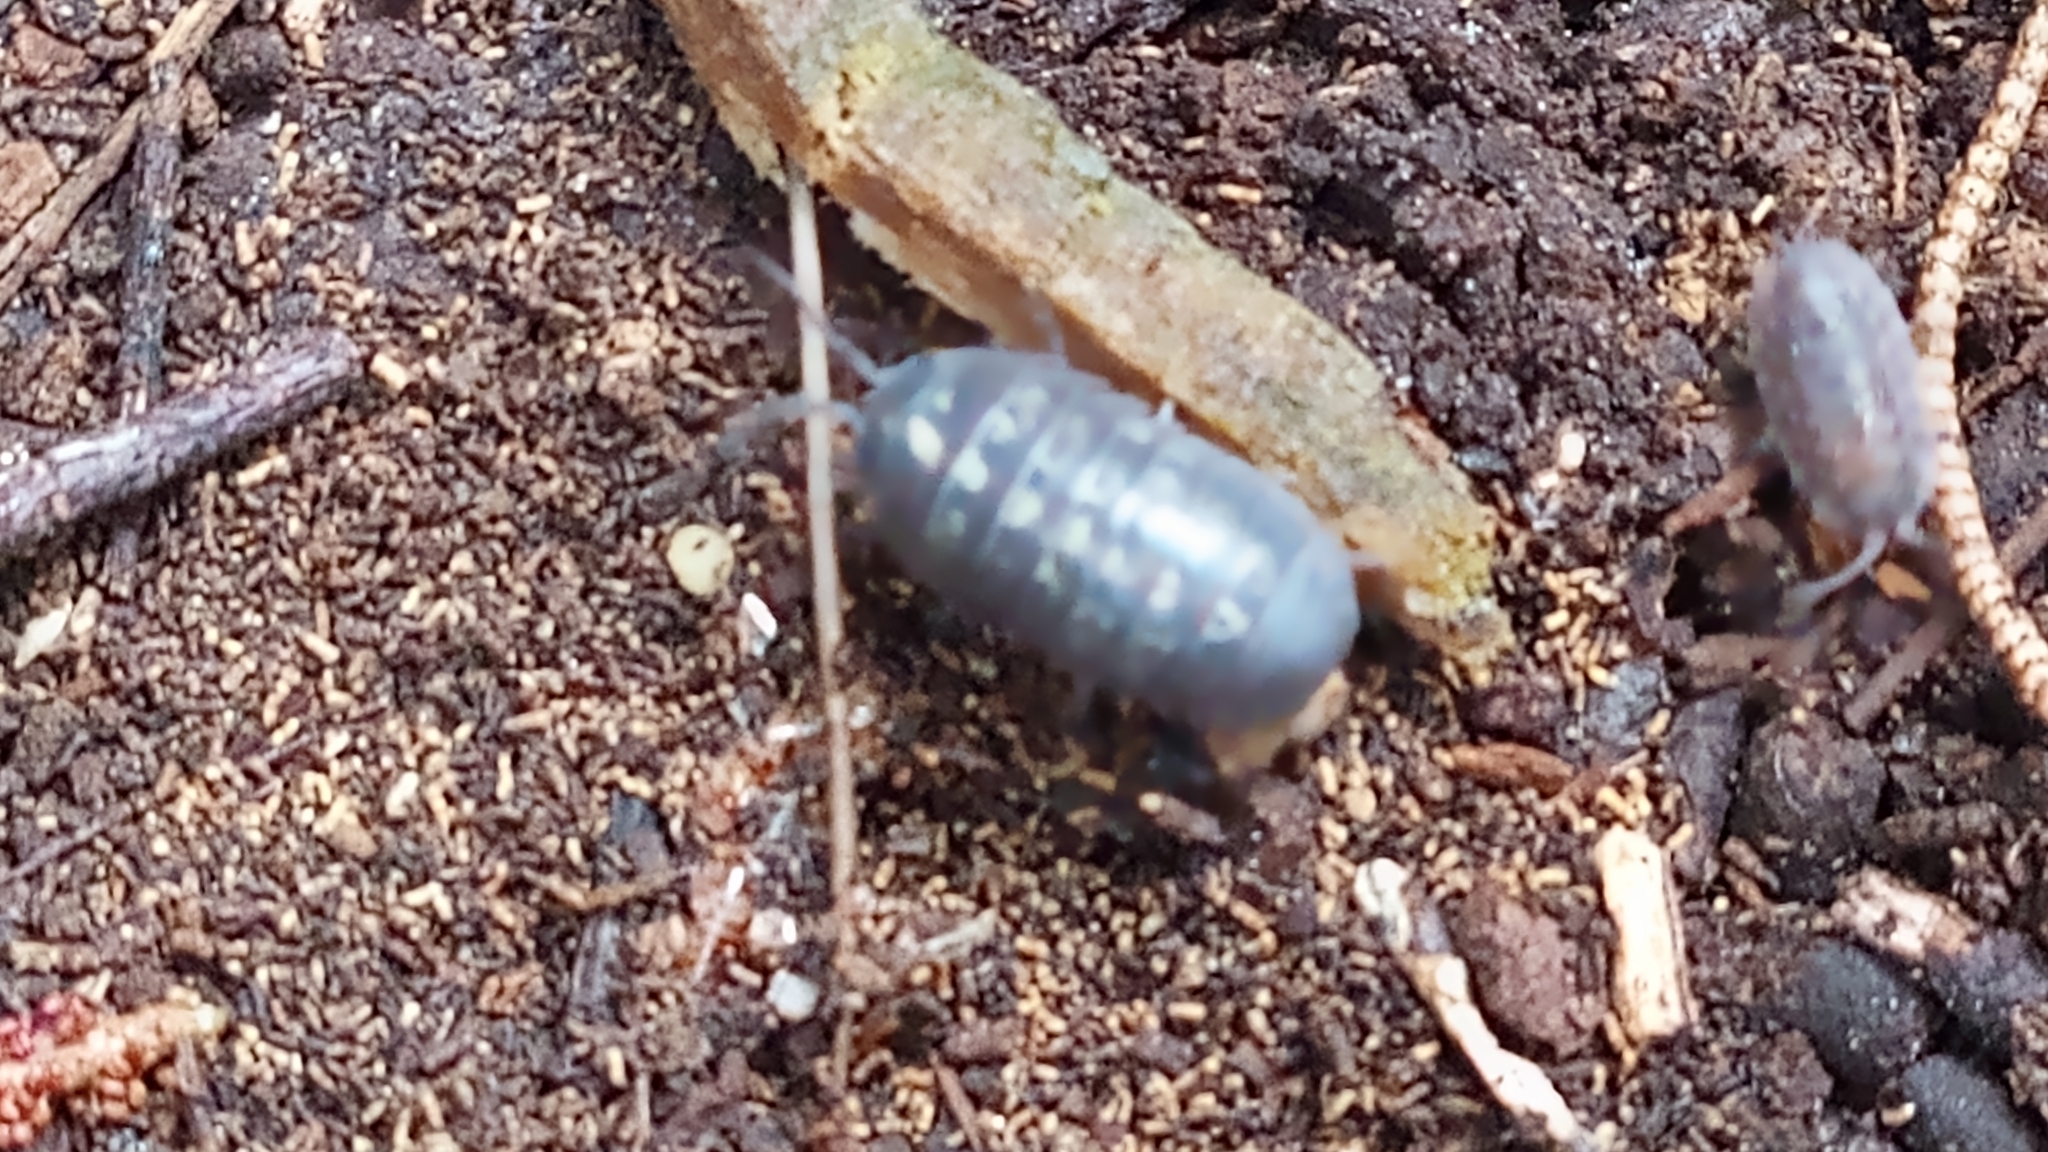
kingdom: Animalia
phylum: Arthropoda
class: Malacostraca
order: Isopoda
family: Armadillidiidae
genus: Armadillidium
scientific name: Armadillidium vulgare
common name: Common pill woodlouse
